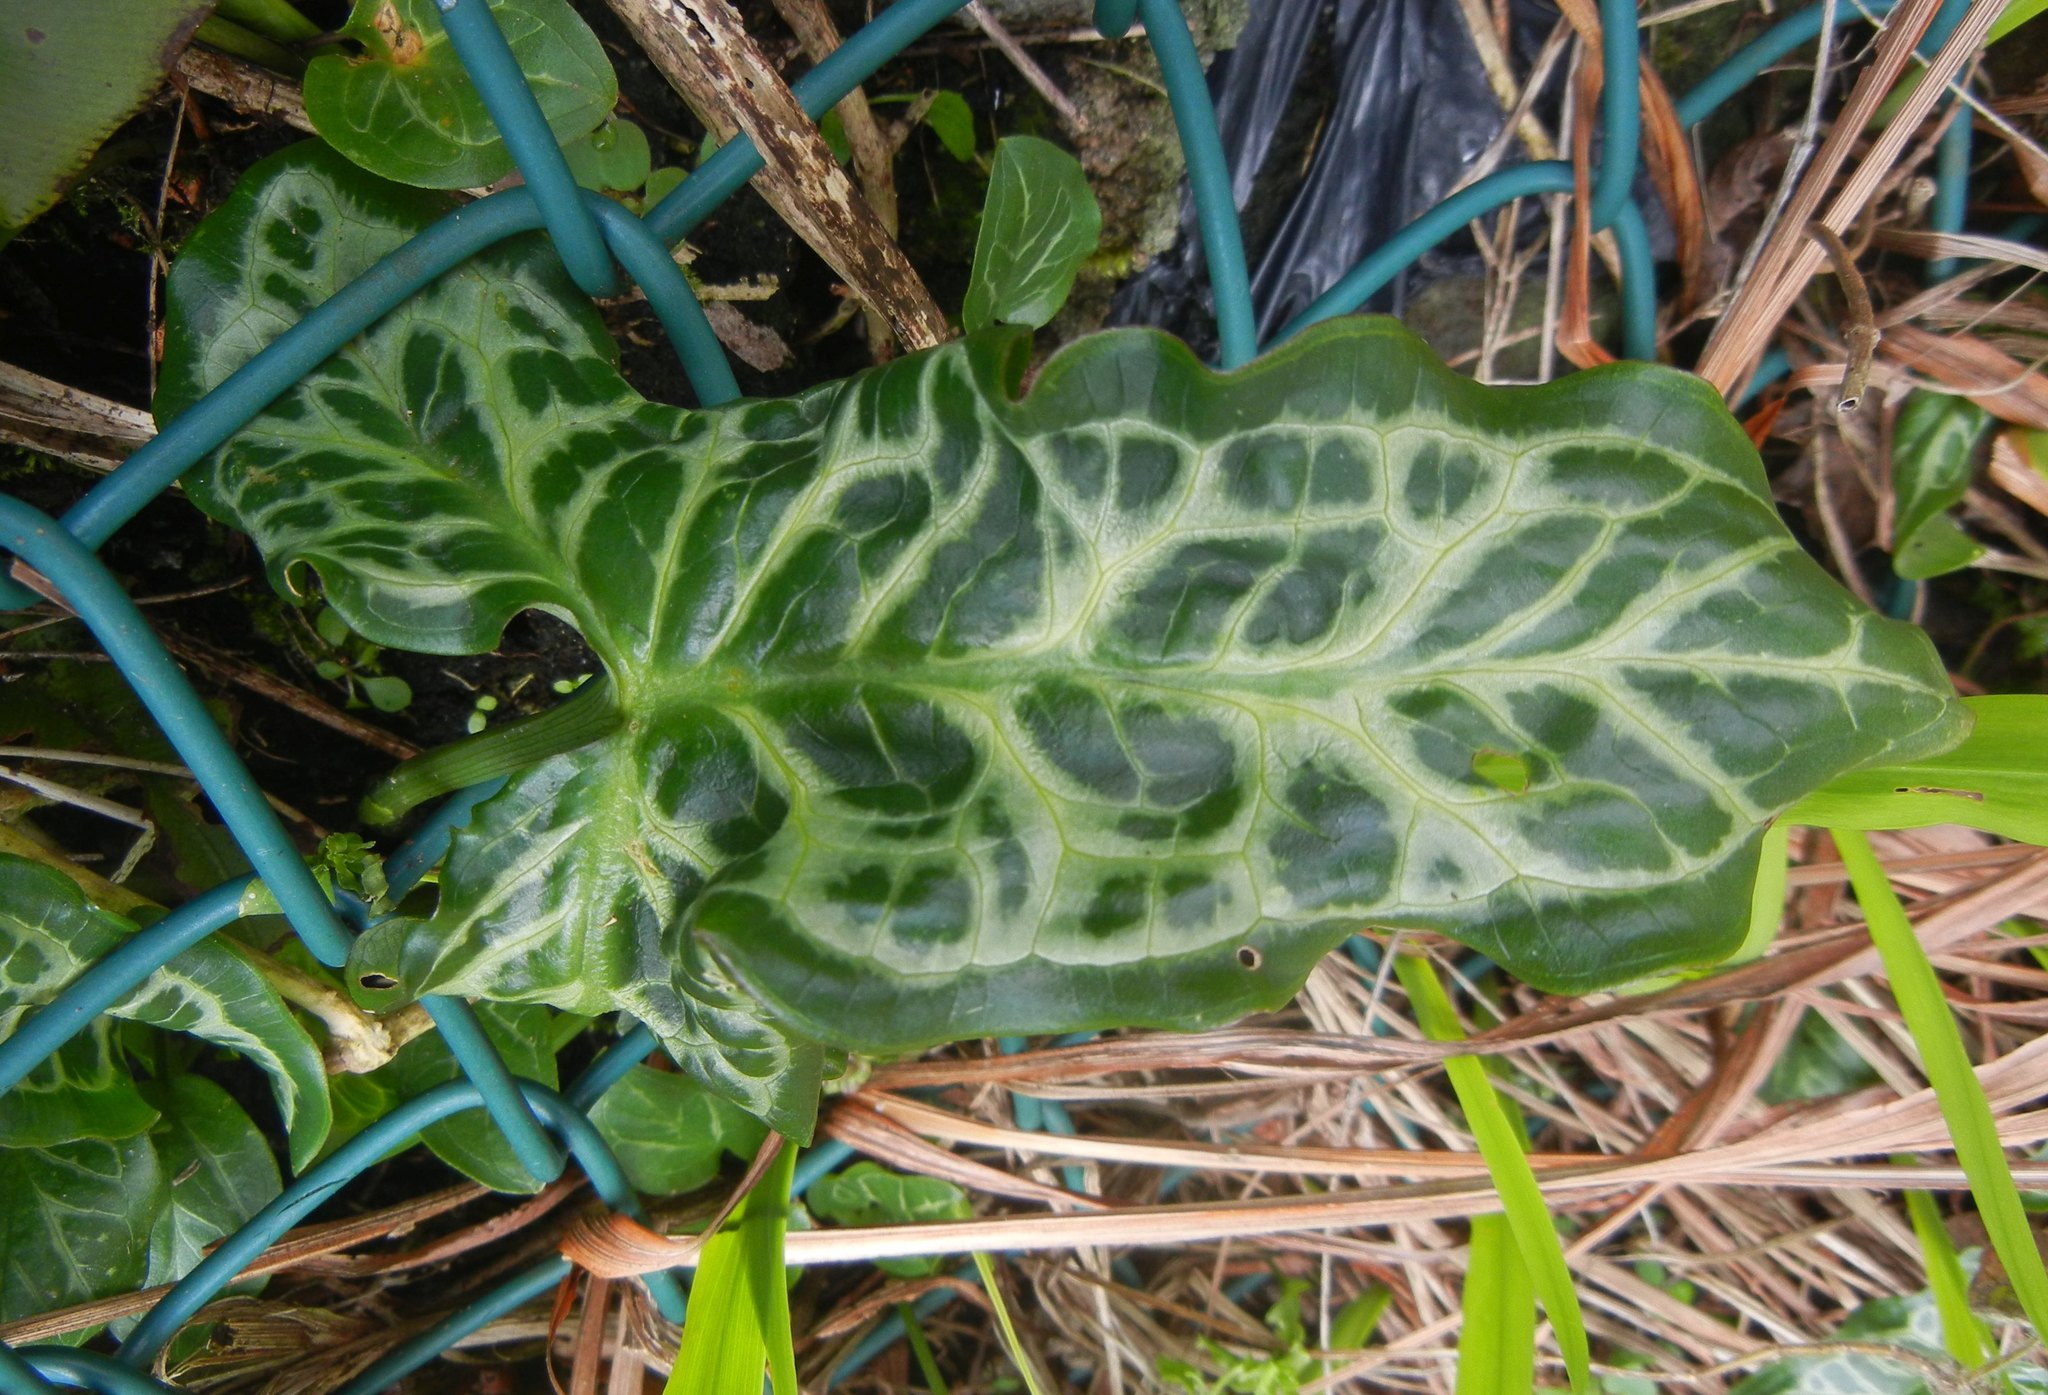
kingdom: Plantae
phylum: Tracheophyta
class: Liliopsida
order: Alismatales
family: Araceae
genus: Arum
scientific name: Arum italicum
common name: Italian lords-and-ladies
